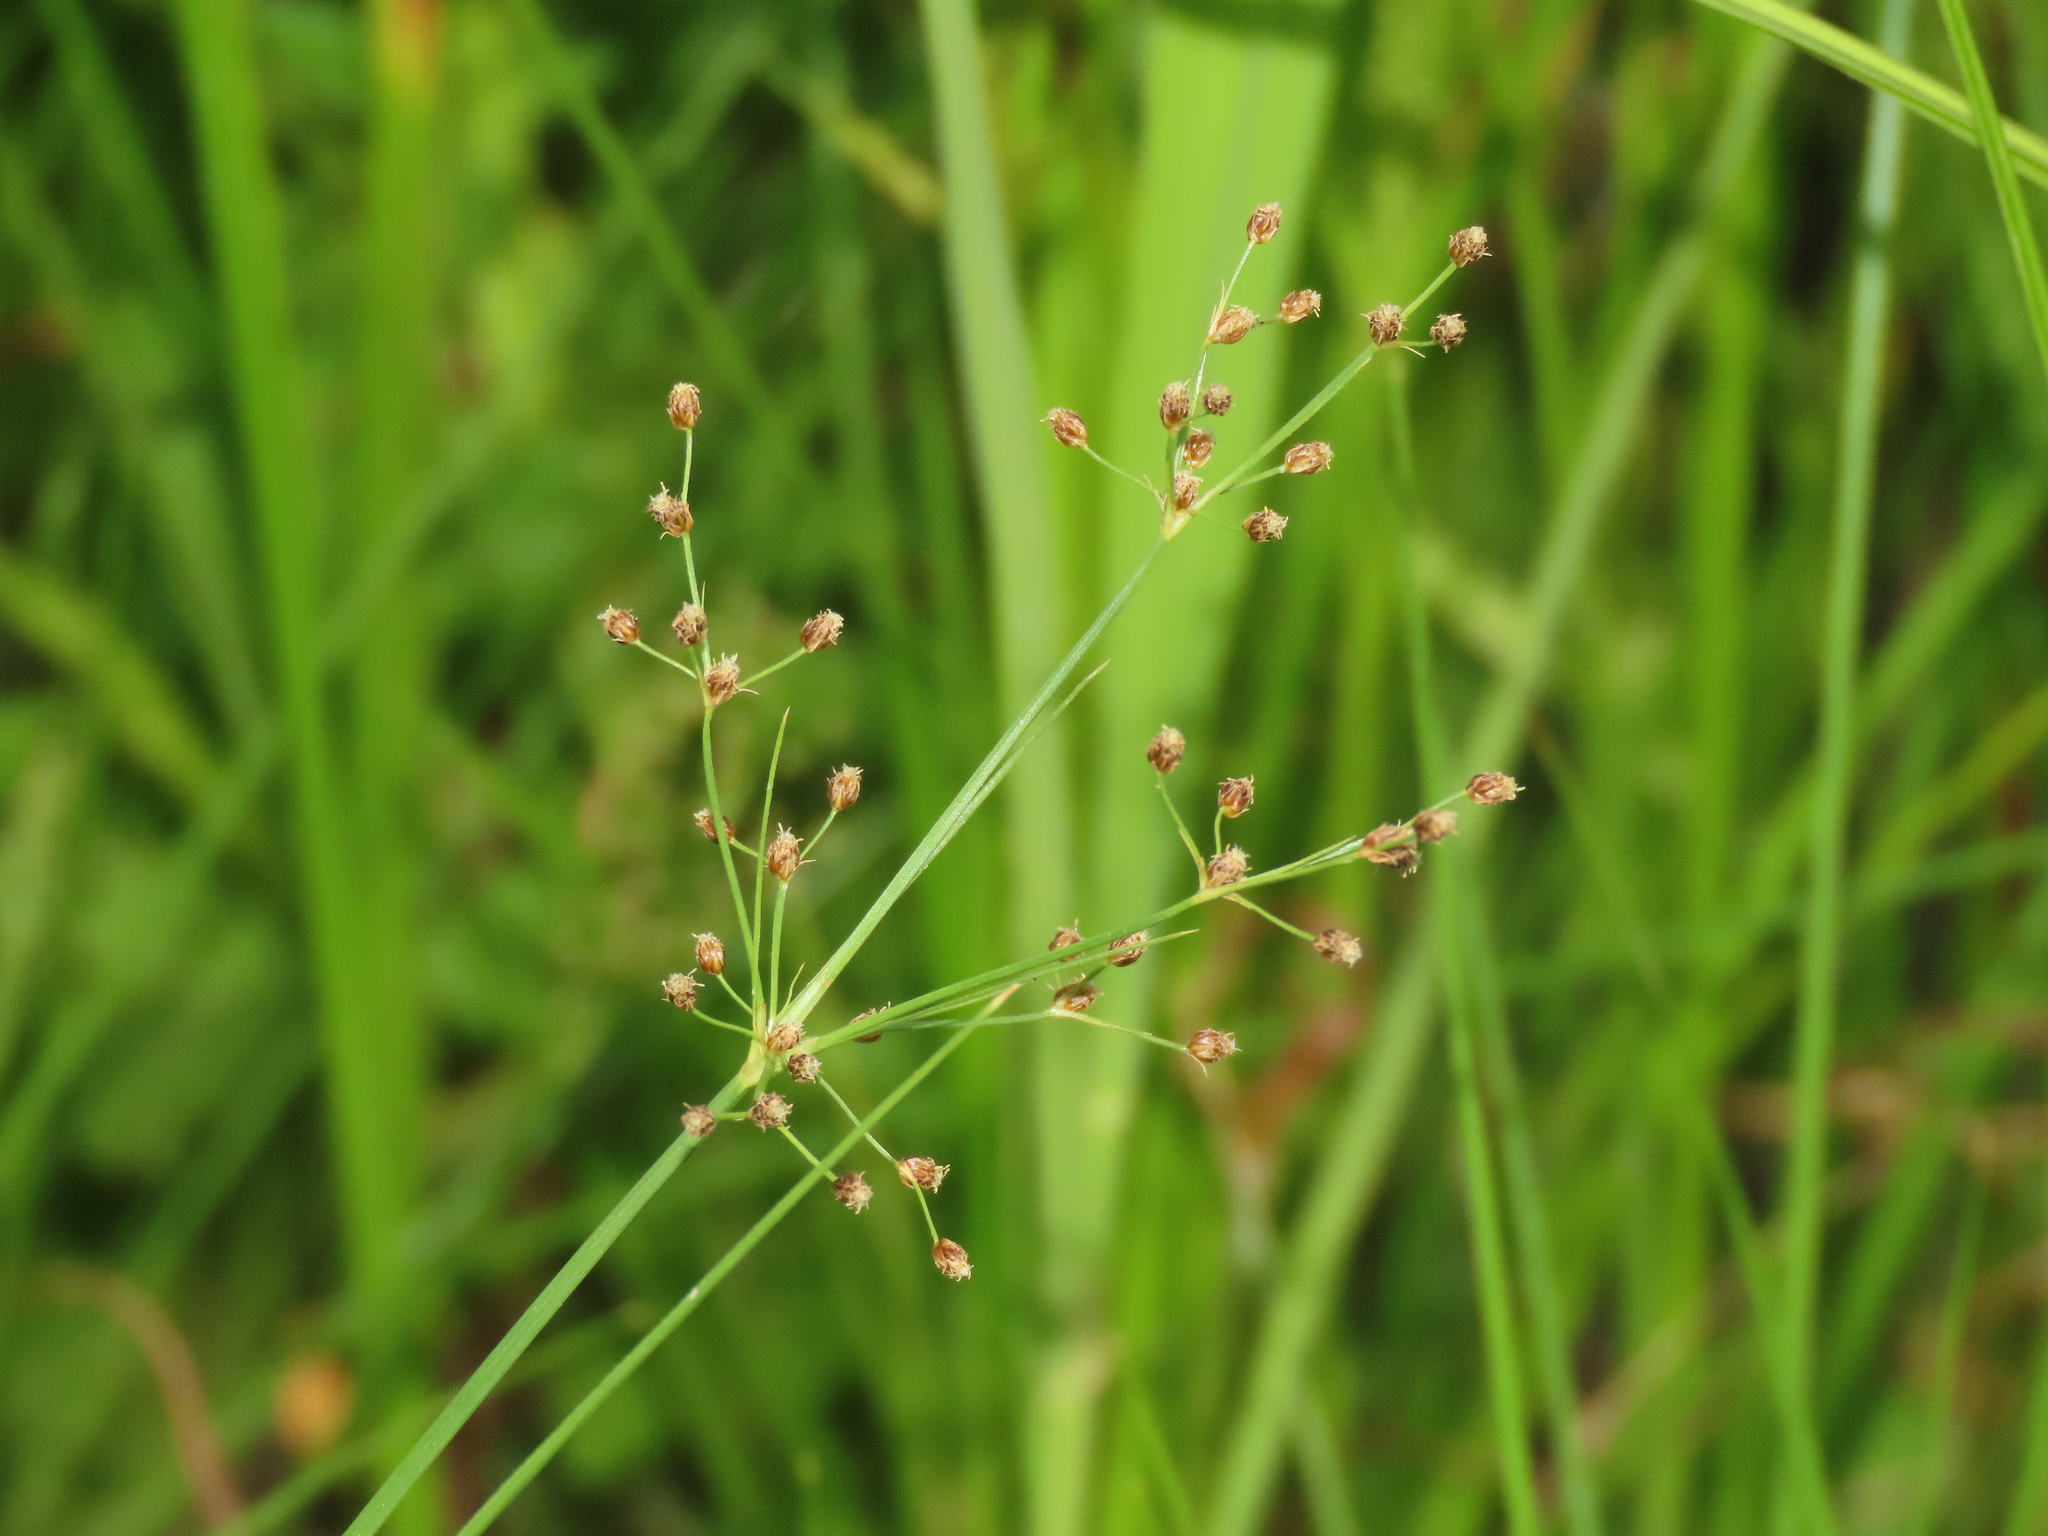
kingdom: Plantae
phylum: Tracheophyta
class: Liliopsida
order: Poales
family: Cyperaceae
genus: Fimbristylis
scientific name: Fimbristylis littoralis
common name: Fimbry
